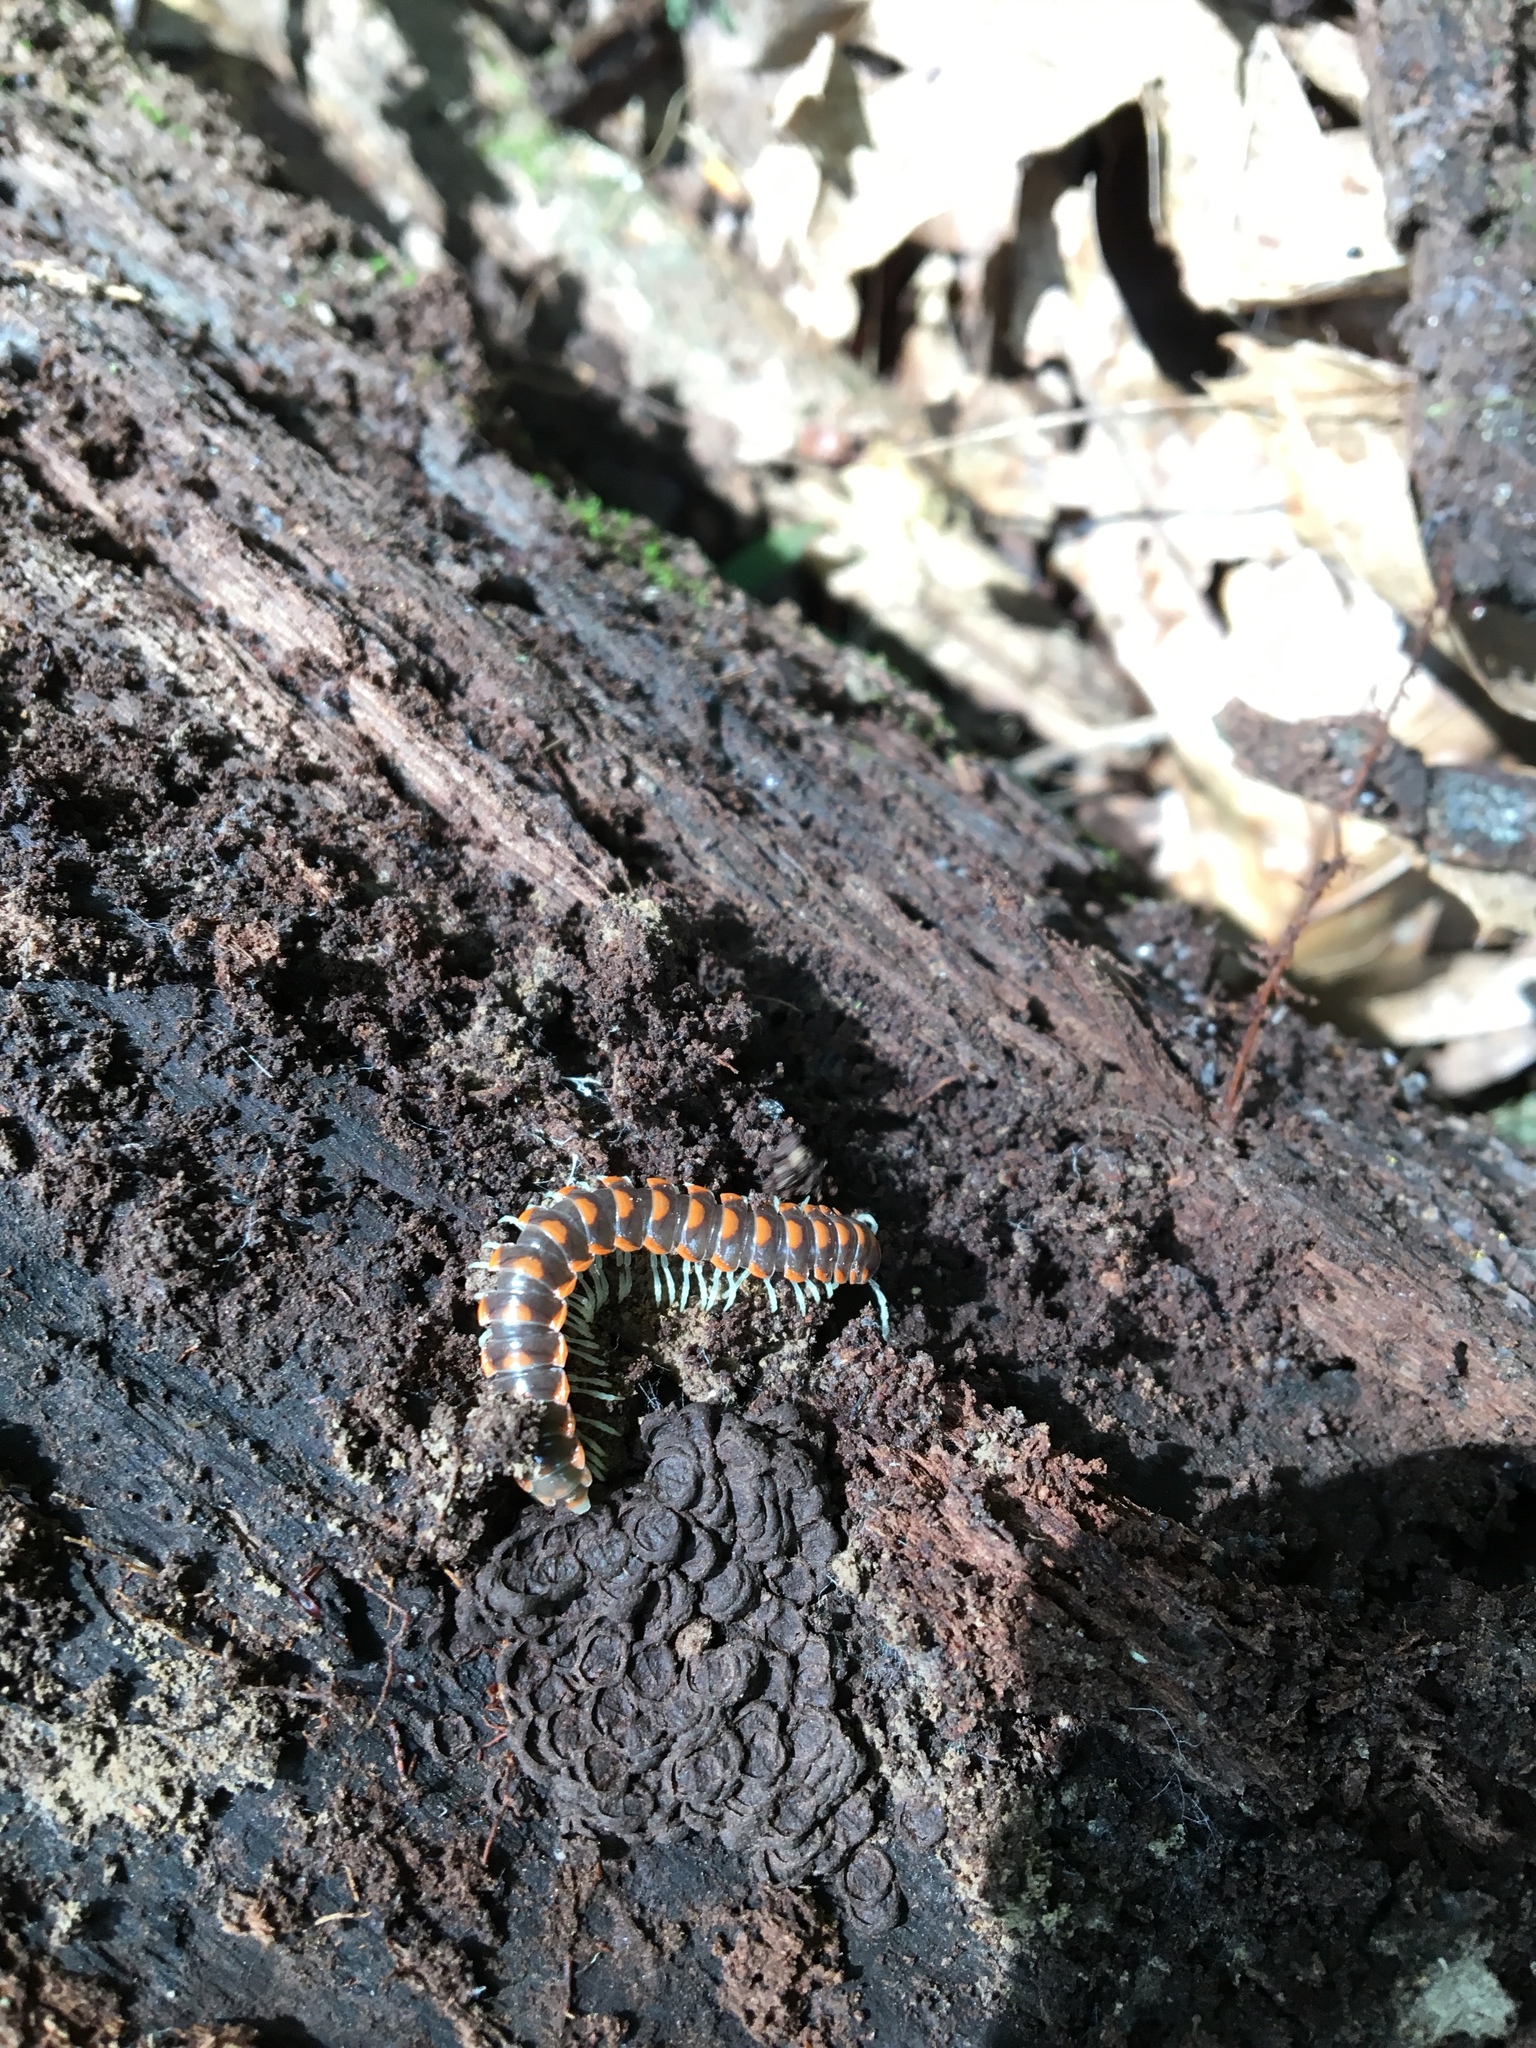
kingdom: Animalia
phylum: Arthropoda
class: Diplopoda
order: Polydesmida
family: Xystodesmidae
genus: Euryurus
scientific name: Euryurus leachii
